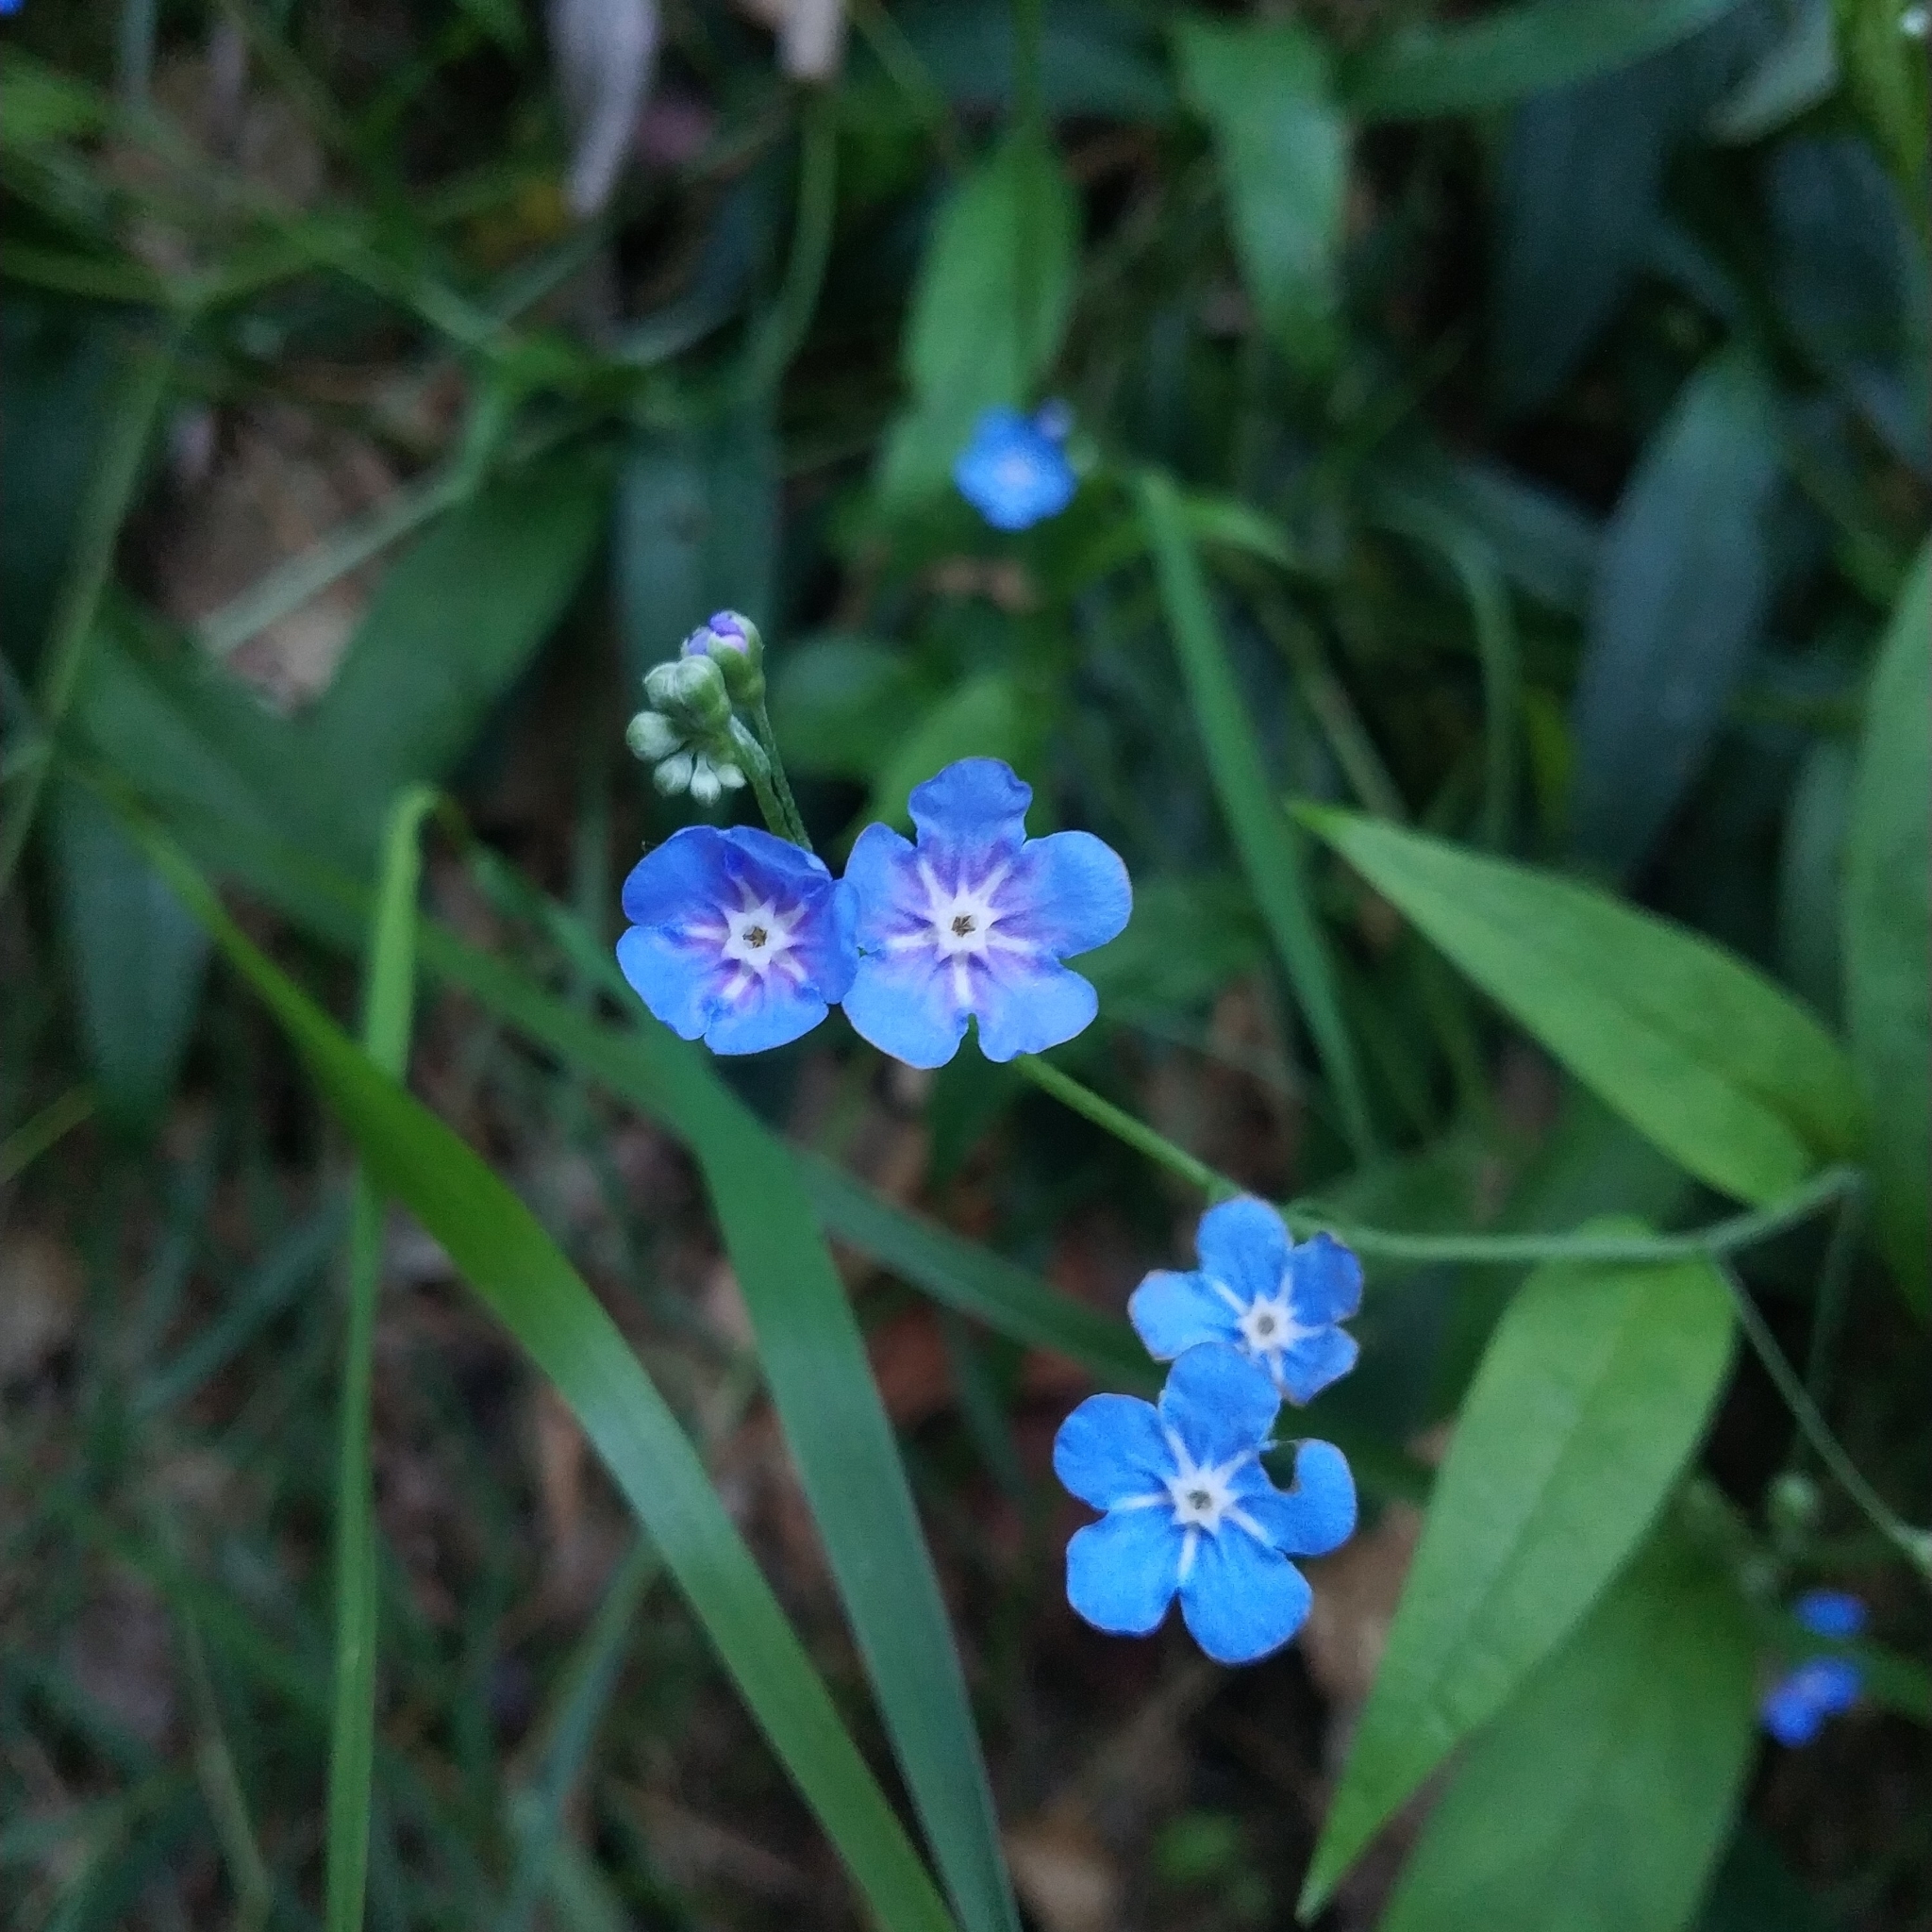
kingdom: Plantae
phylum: Tracheophyta
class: Magnoliopsida
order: Boraginales
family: Boraginaceae
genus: Omphalodes
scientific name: Omphalodes nitida
